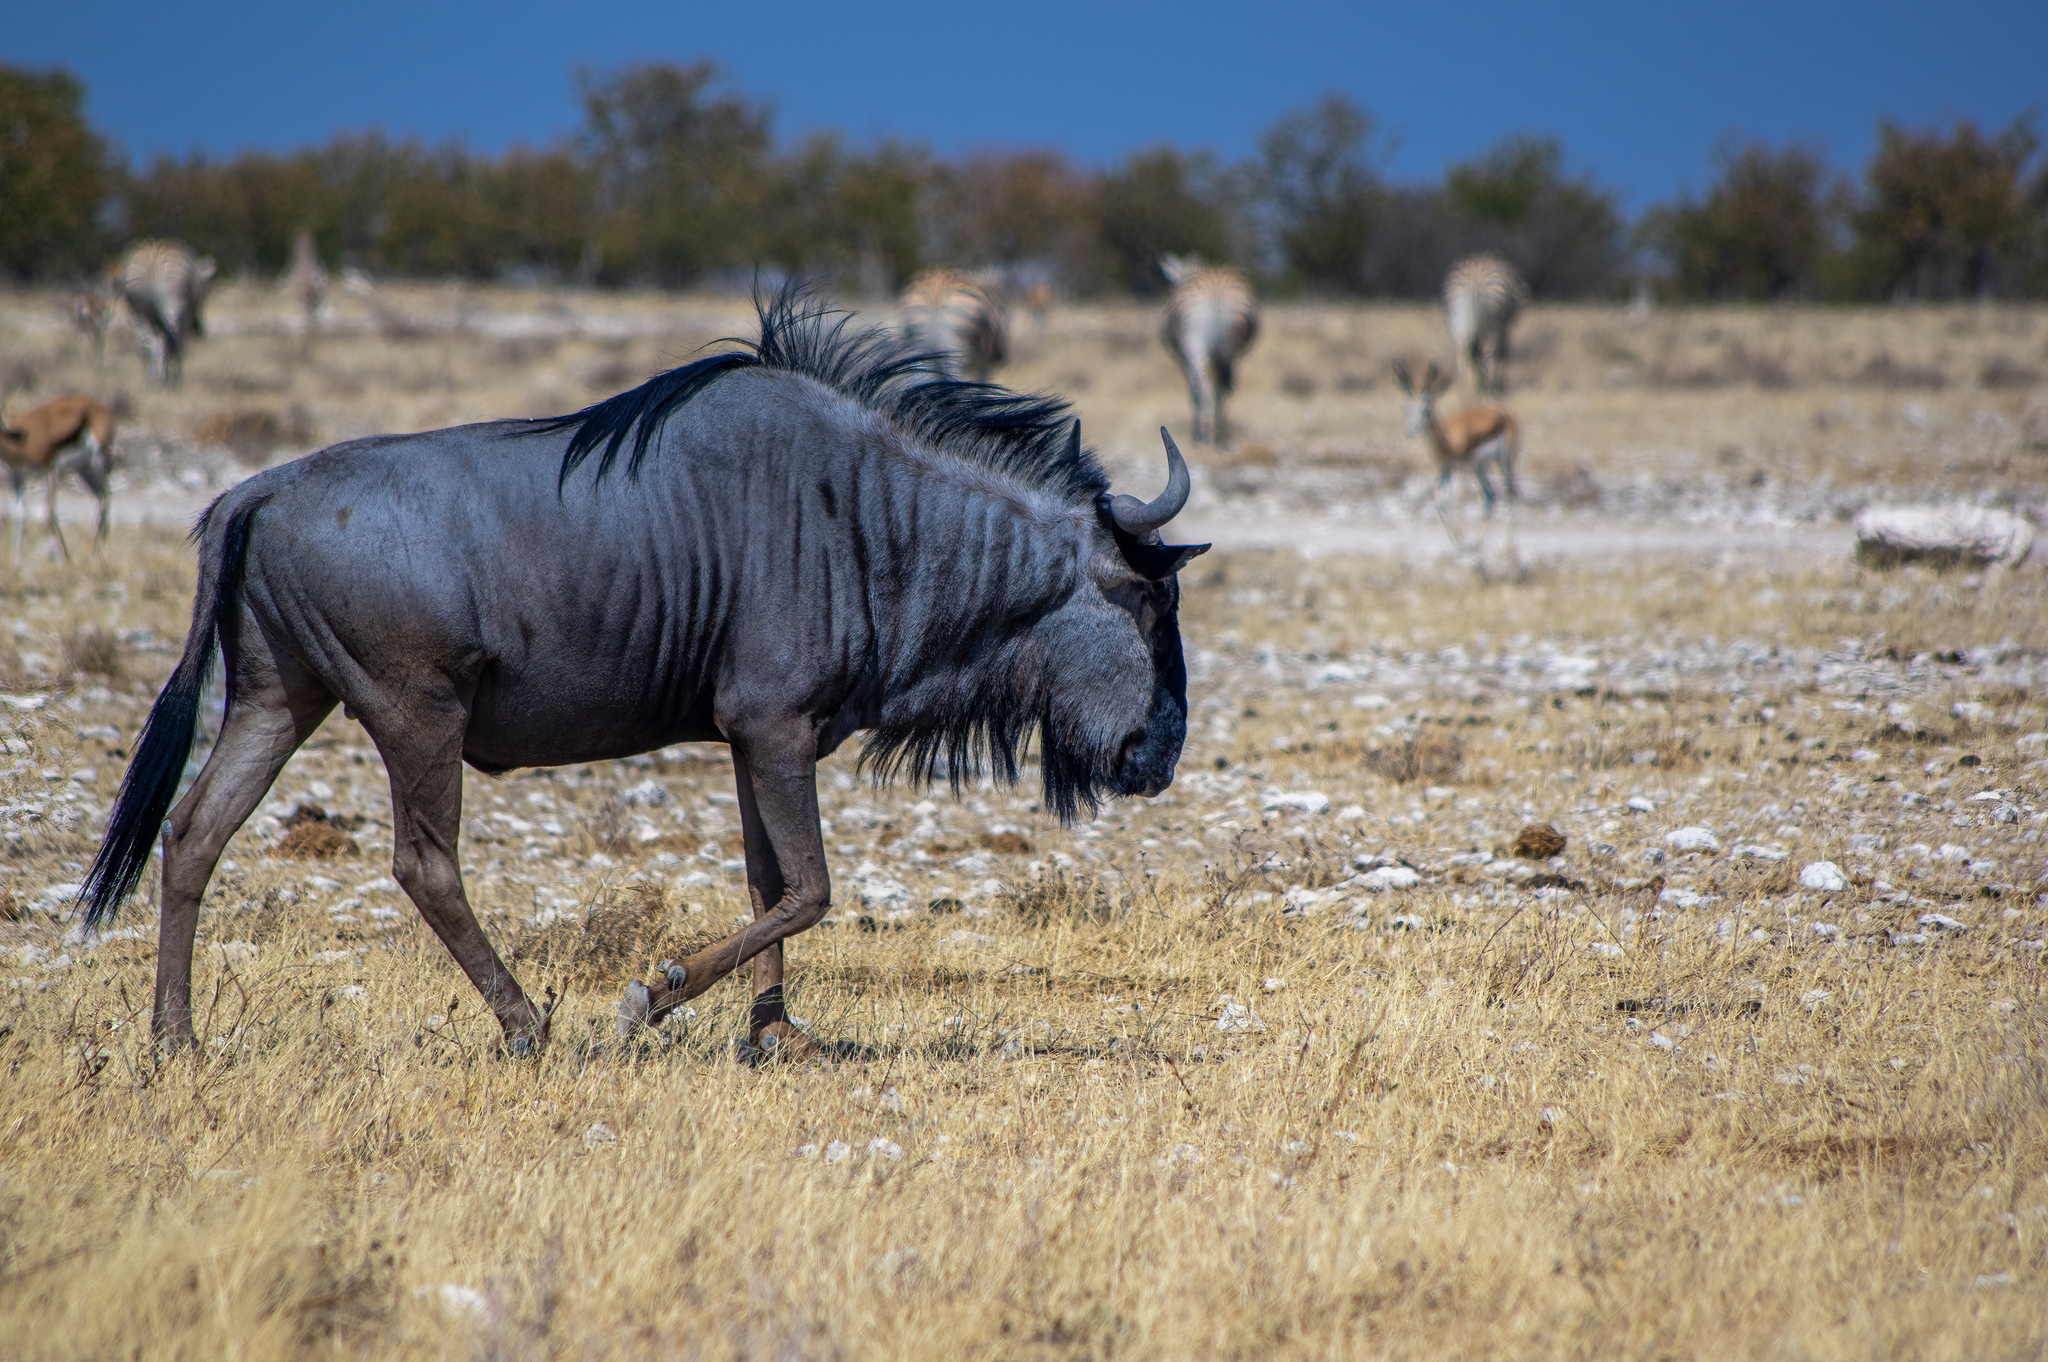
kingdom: Animalia
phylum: Chordata
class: Mammalia
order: Artiodactyla
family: Bovidae
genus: Connochaetes
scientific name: Connochaetes taurinus
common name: Blue wildebeest
